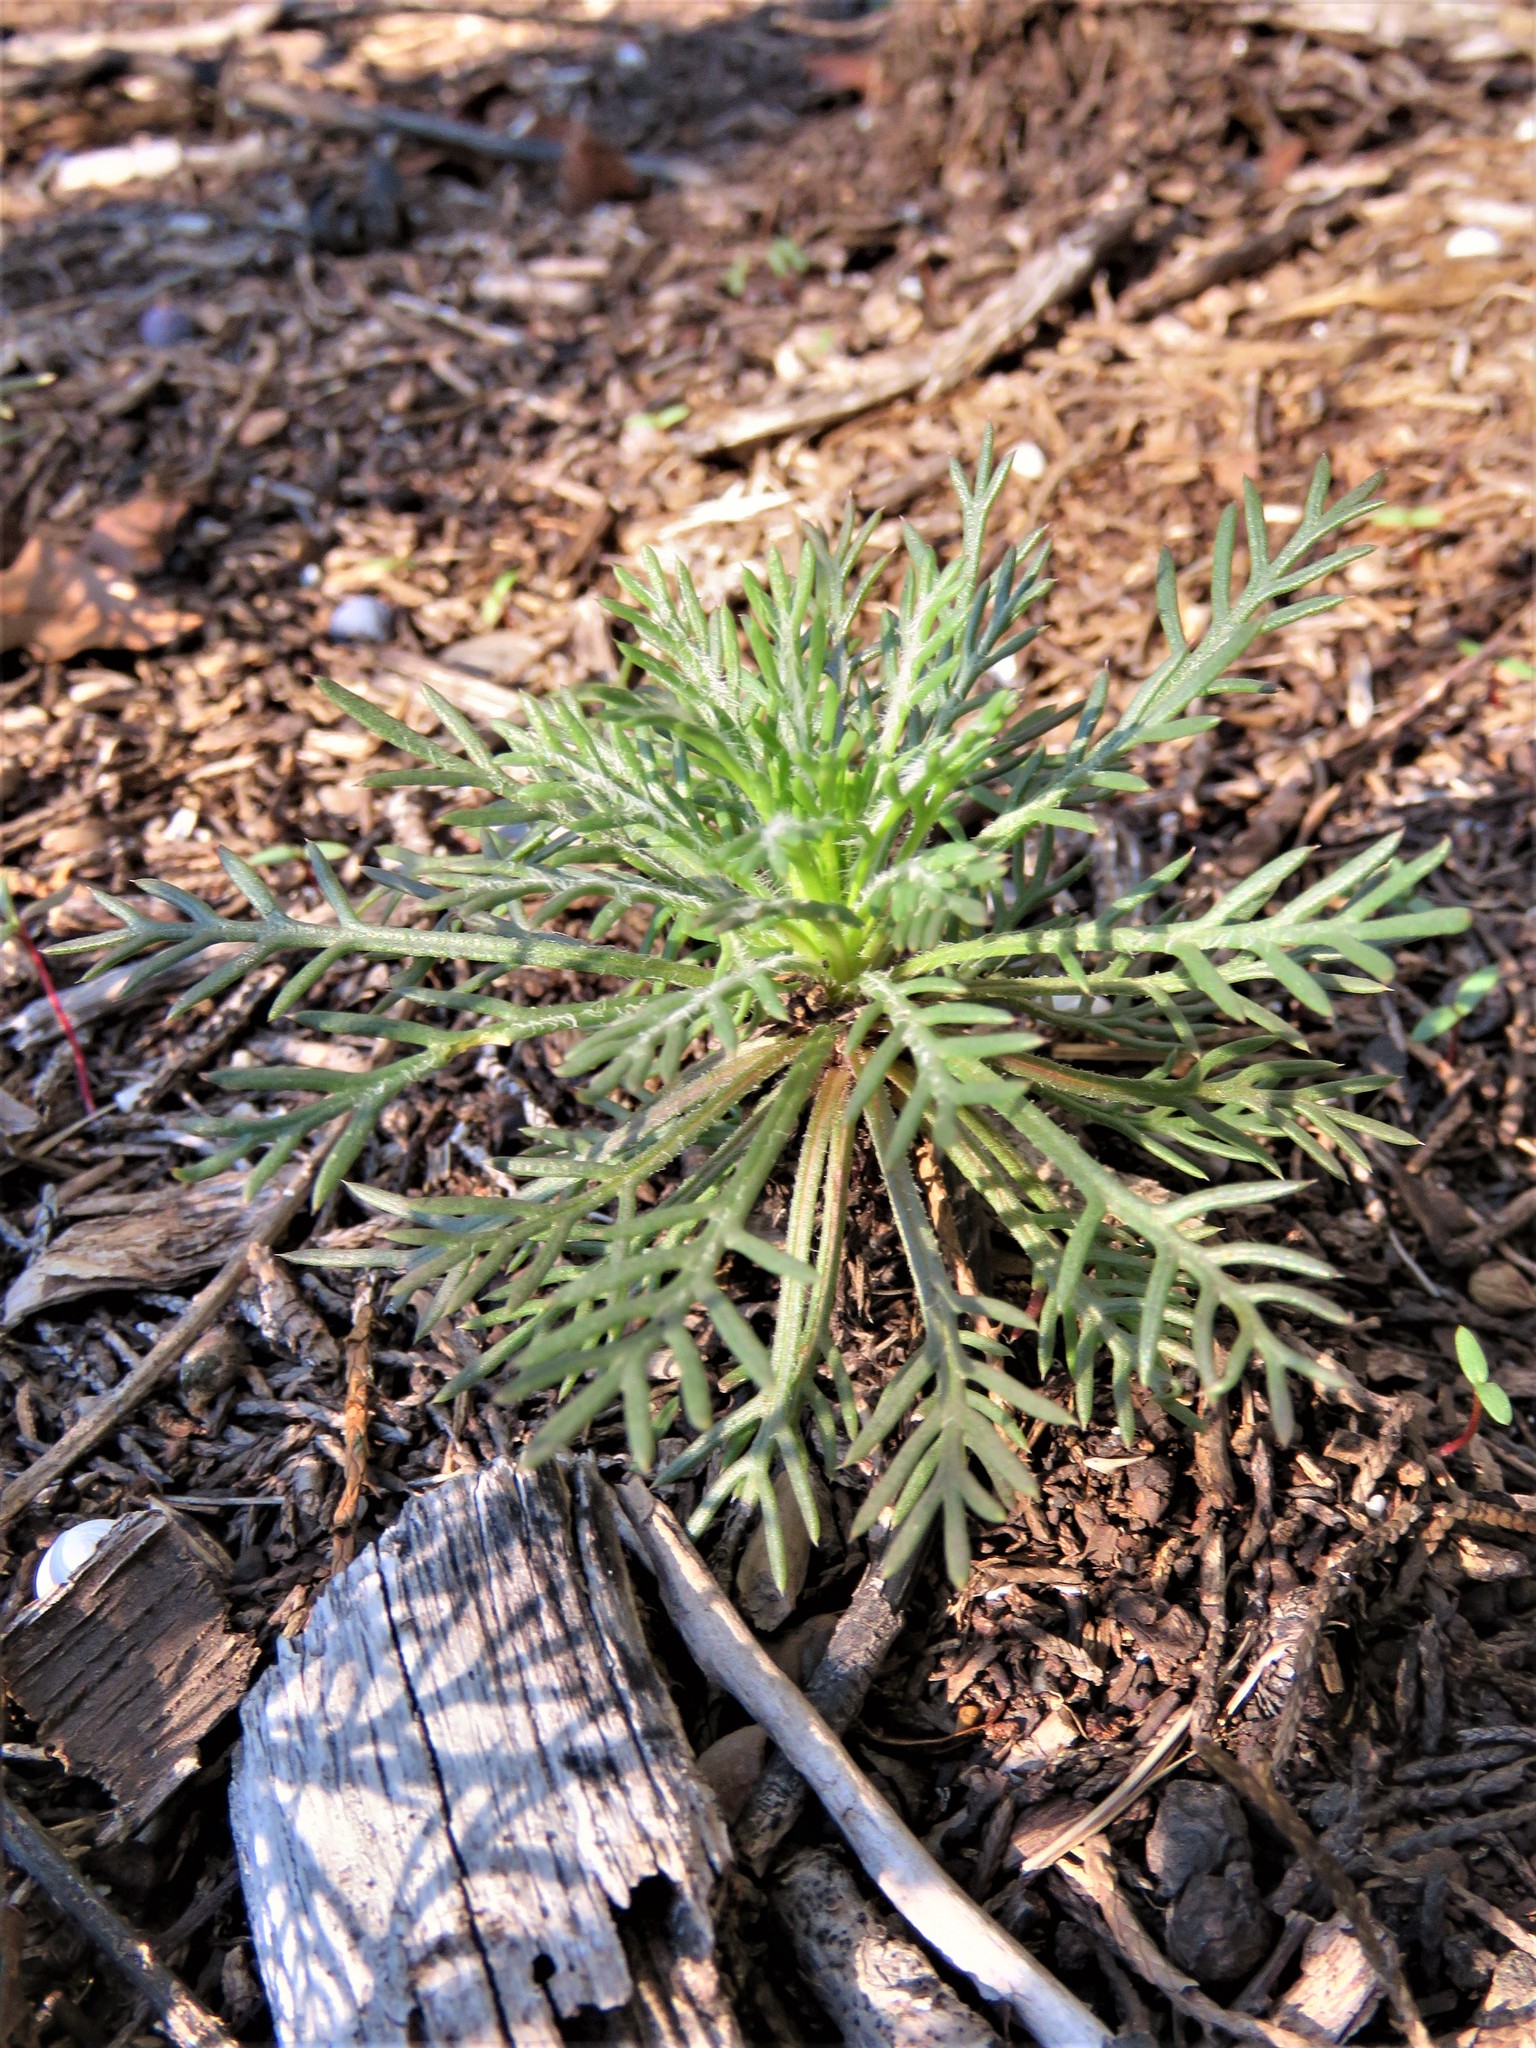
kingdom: Plantae
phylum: Tracheophyta
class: Magnoliopsida
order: Ericales
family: Polemoniaceae
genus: Ipomopsis
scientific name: Ipomopsis rubra
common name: Skyrocket
